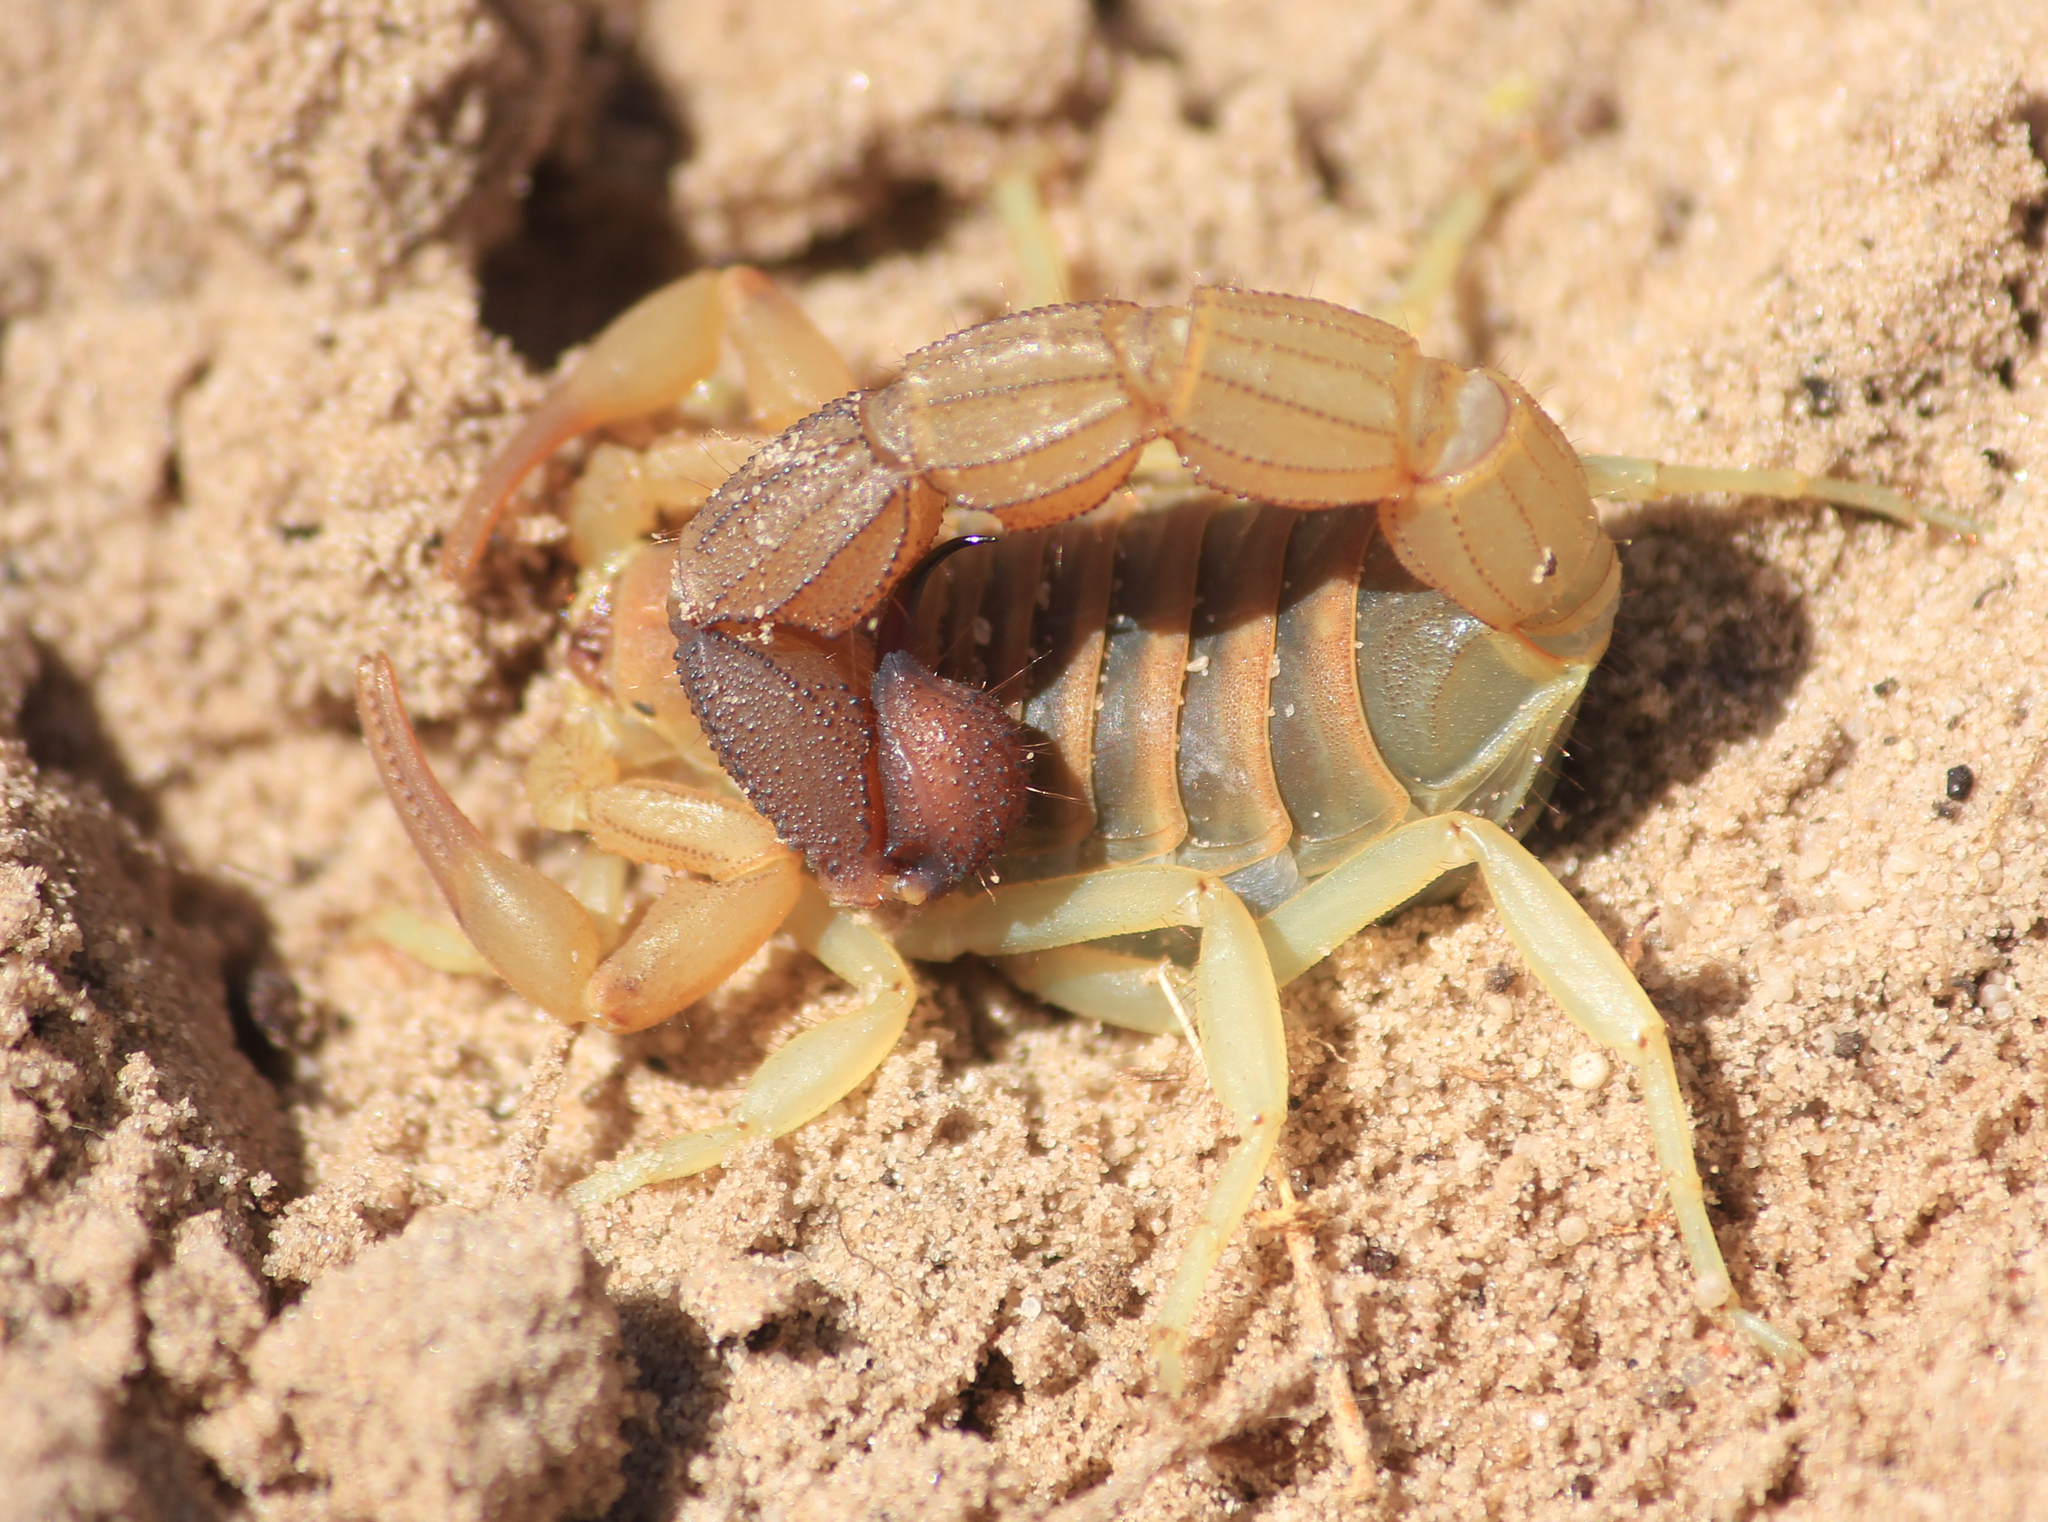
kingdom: Animalia
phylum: Arthropoda
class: Arachnida
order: Scorpiones
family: Buthidae
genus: Parabuthus
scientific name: Parabuthus capensis
